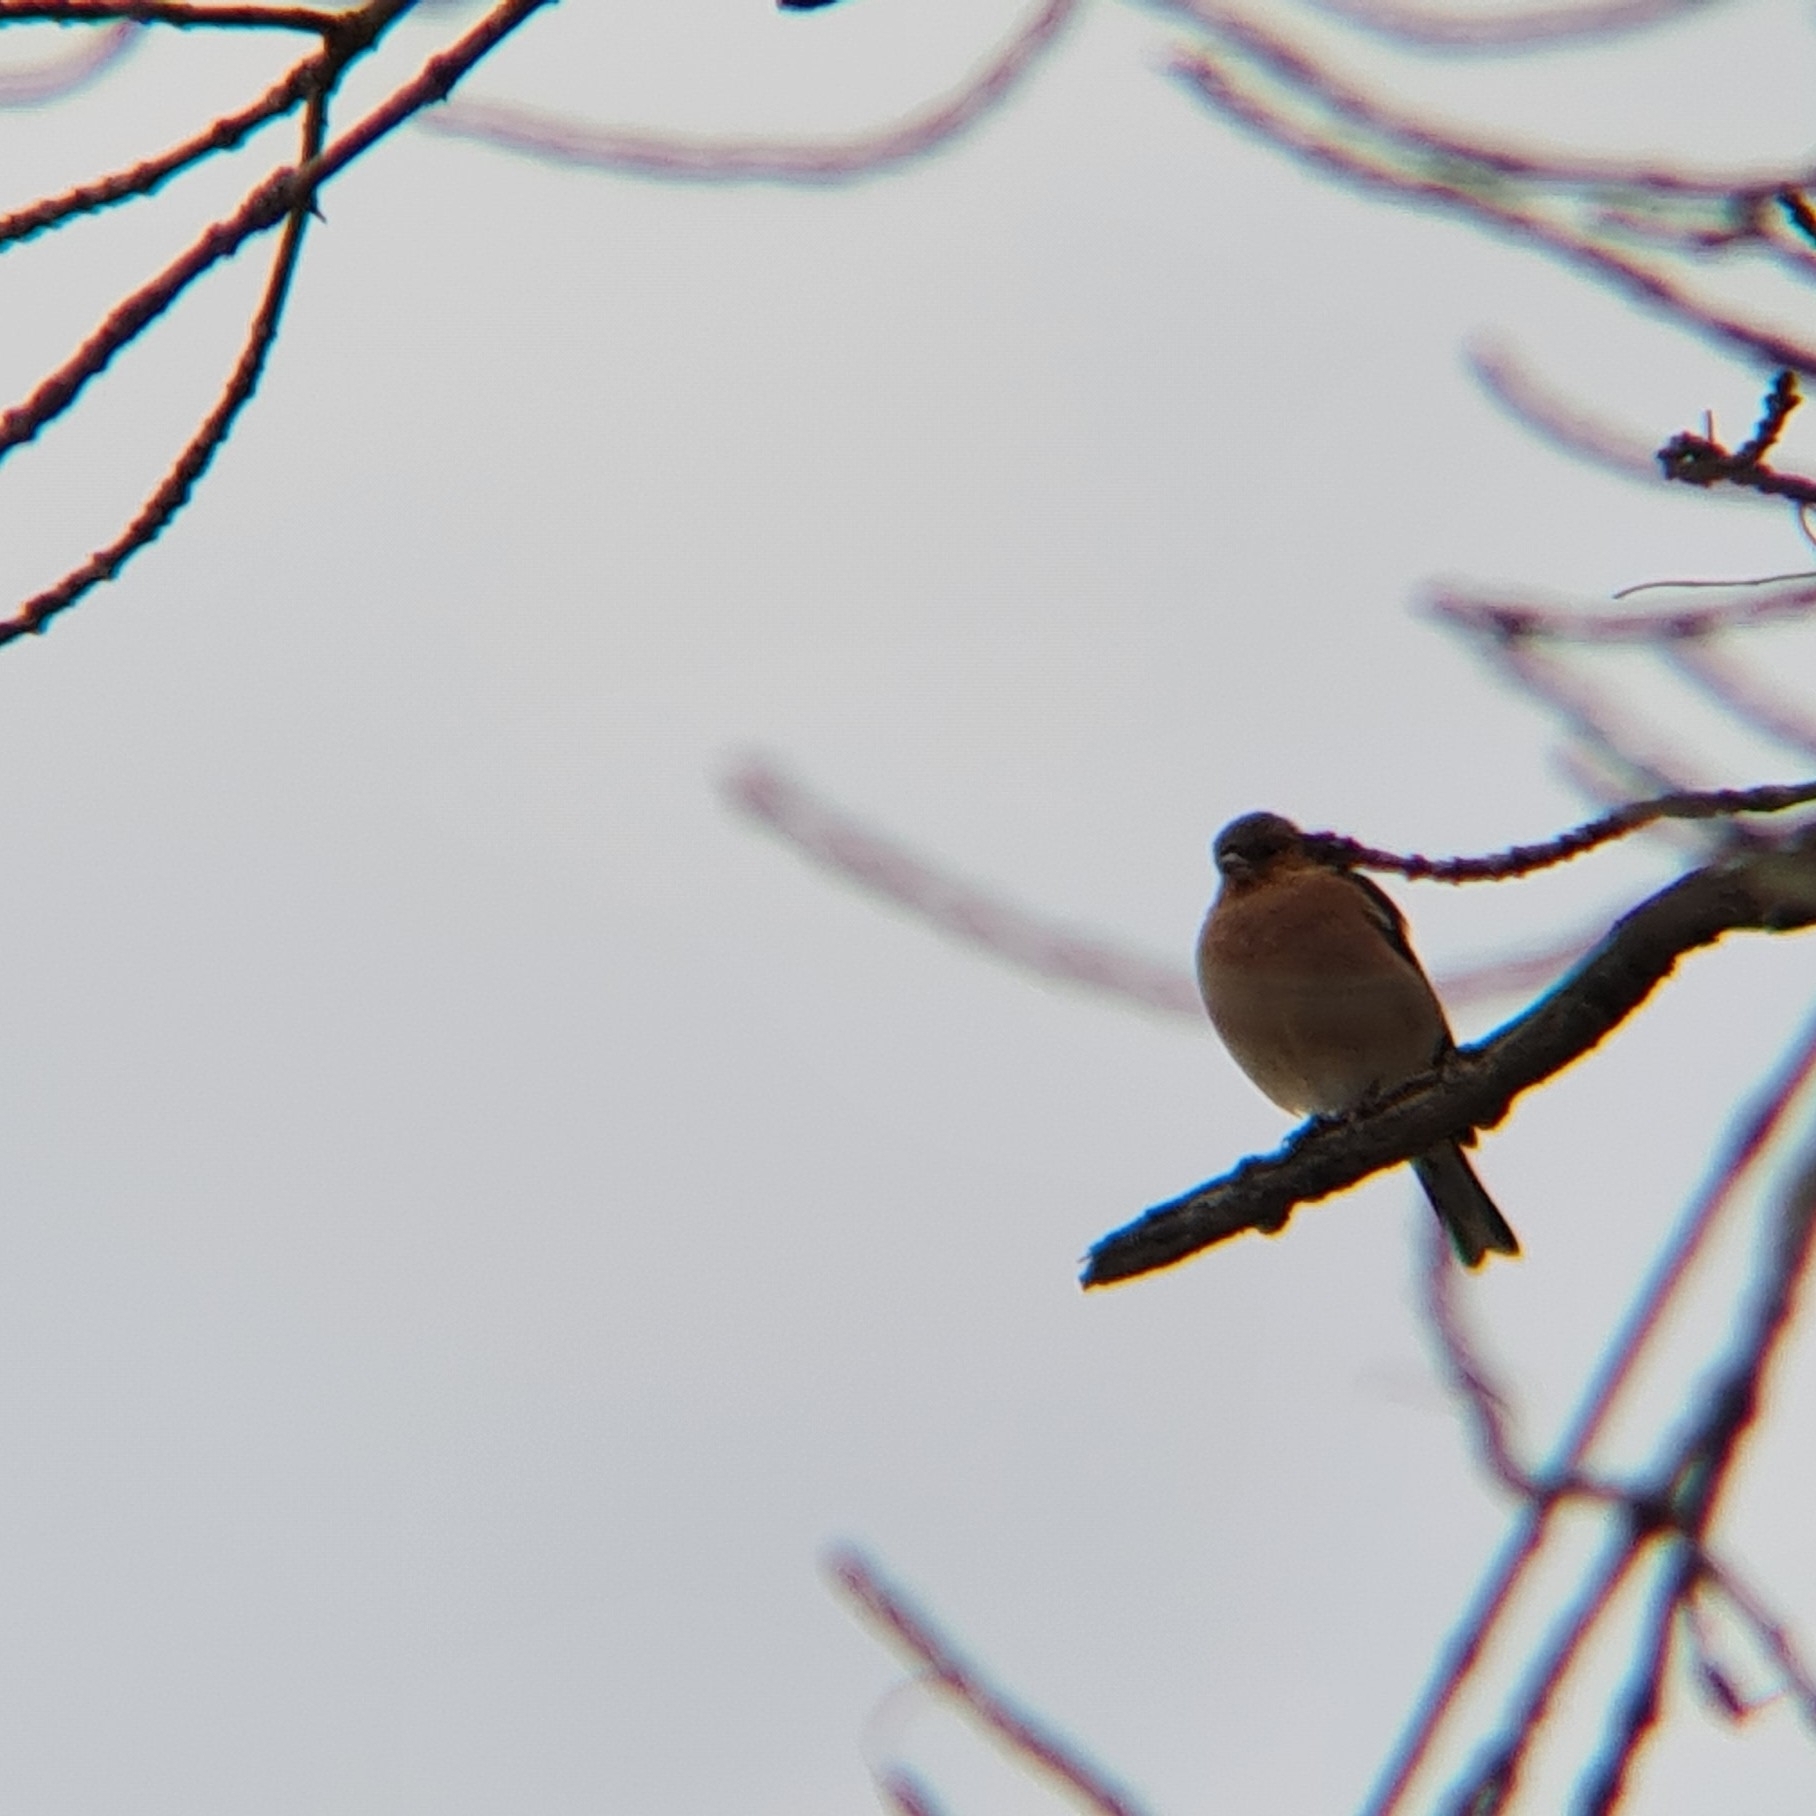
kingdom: Animalia
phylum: Chordata
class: Aves
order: Passeriformes
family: Fringillidae
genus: Fringilla
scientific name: Fringilla coelebs
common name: Common chaffinch
